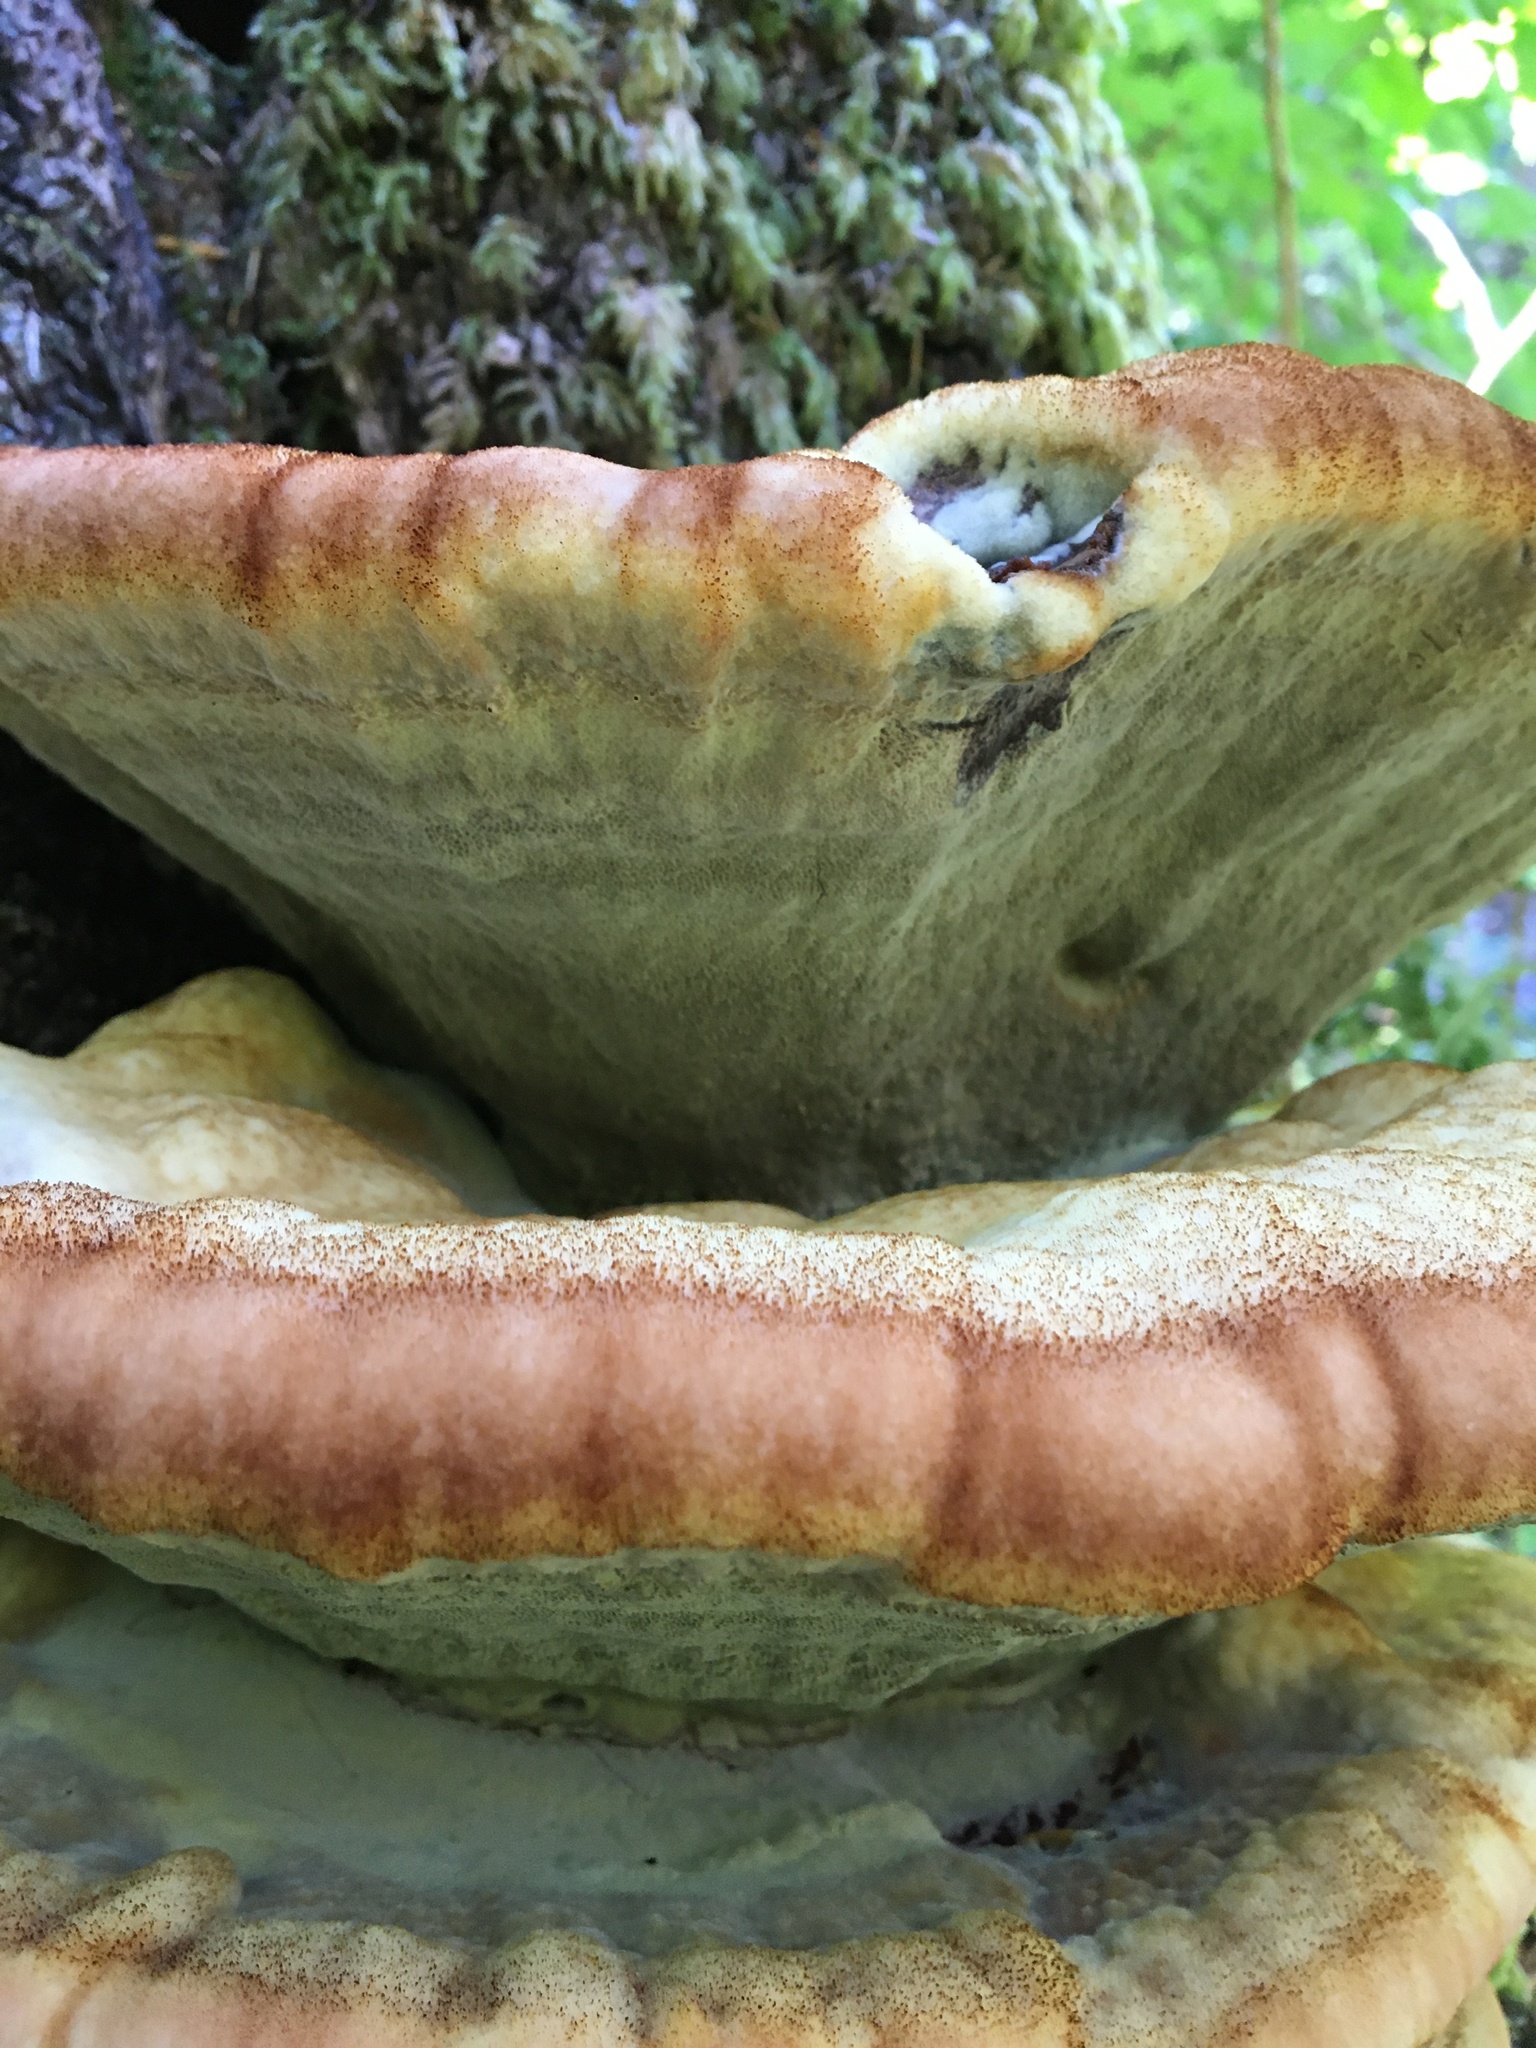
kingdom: Fungi
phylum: Basidiomycota
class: Agaricomycetes
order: Polyporales
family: Laetiporaceae
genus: Phaeolus
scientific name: Phaeolus schweinitzii
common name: Dyer's mazegill
